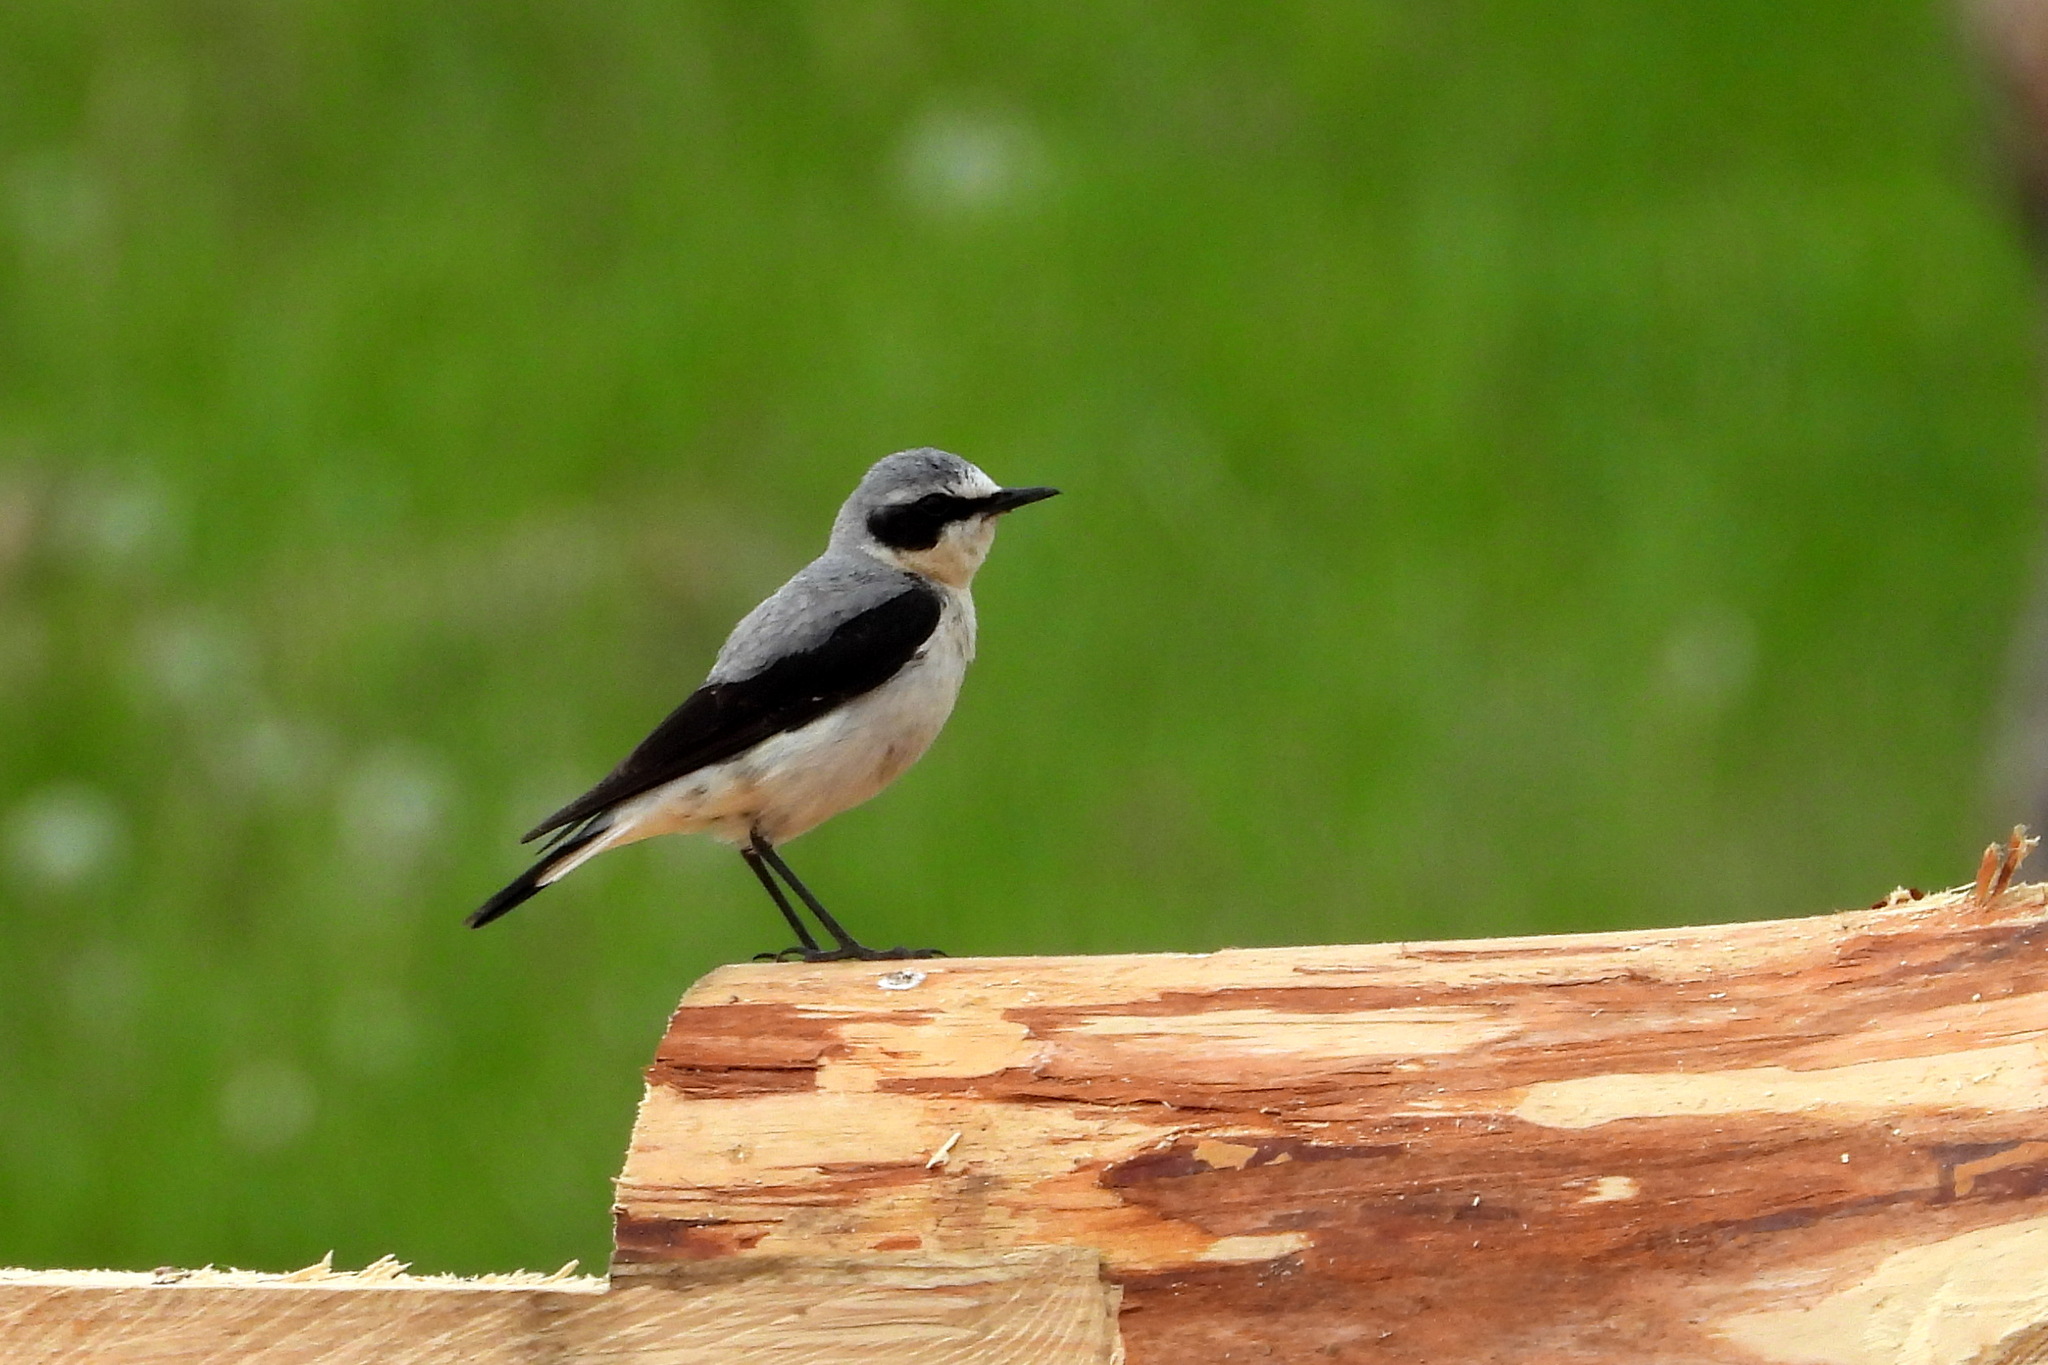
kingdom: Animalia
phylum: Chordata
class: Aves
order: Passeriformes
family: Muscicapidae
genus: Oenanthe
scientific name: Oenanthe oenanthe
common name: Northern wheatear
